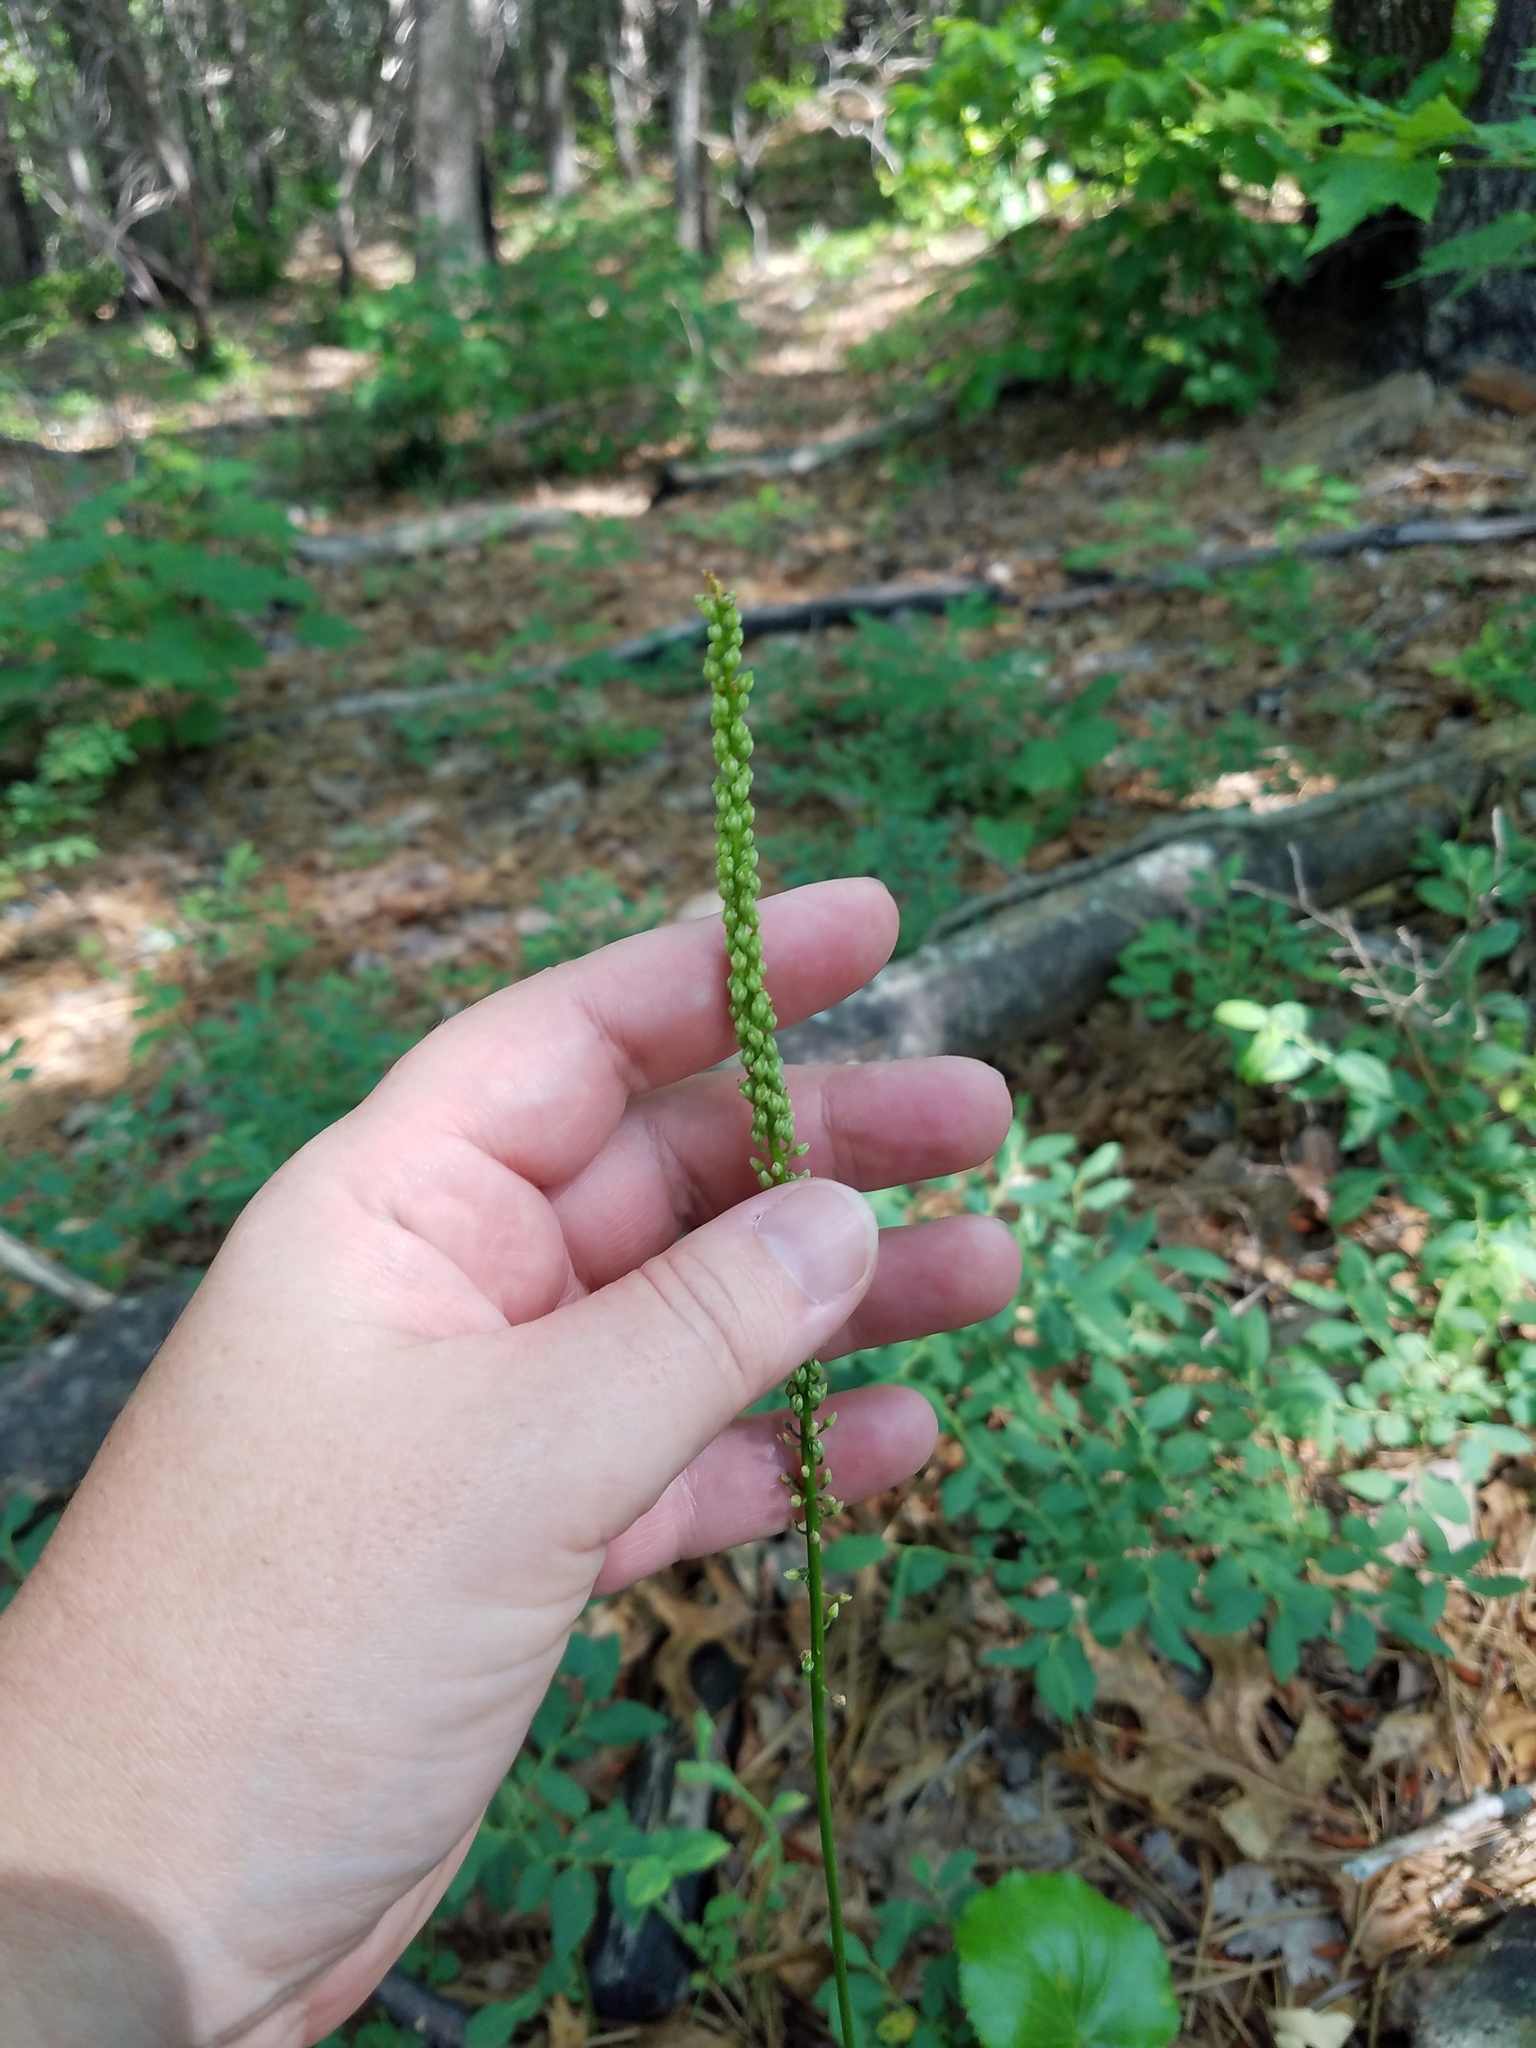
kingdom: Plantae
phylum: Tracheophyta
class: Magnoliopsida
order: Ericales
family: Diapensiaceae
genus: Galax
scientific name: Galax urceolata
